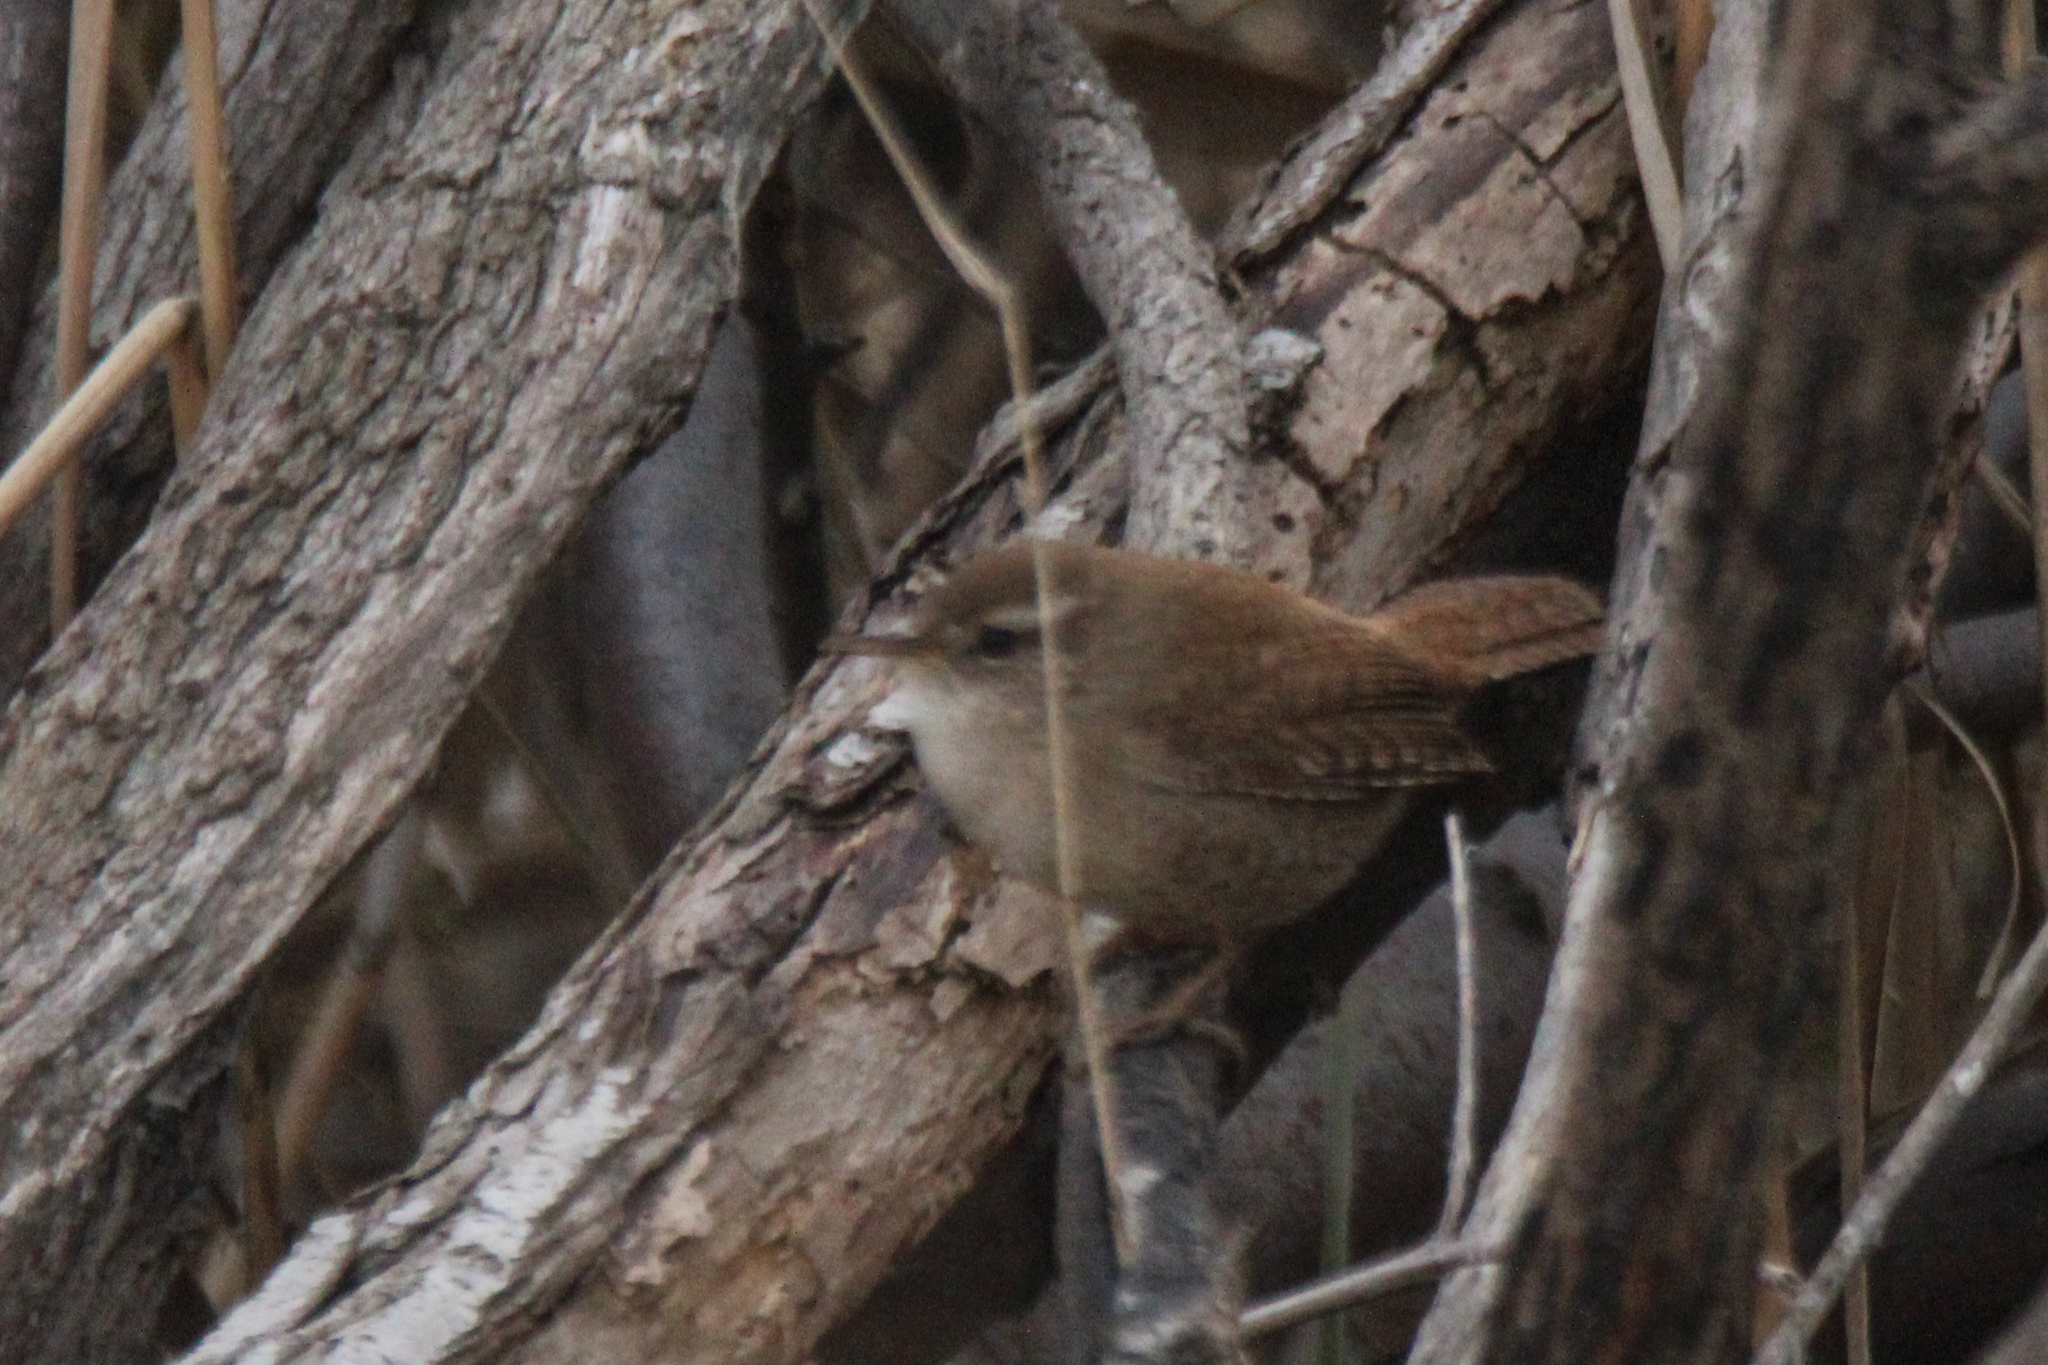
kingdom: Animalia
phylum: Chordata
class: Aves
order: Passeriformes
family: Troglodytidae
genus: Troglodytes
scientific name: Troglodytes troglodytes
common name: Eurasian wren
